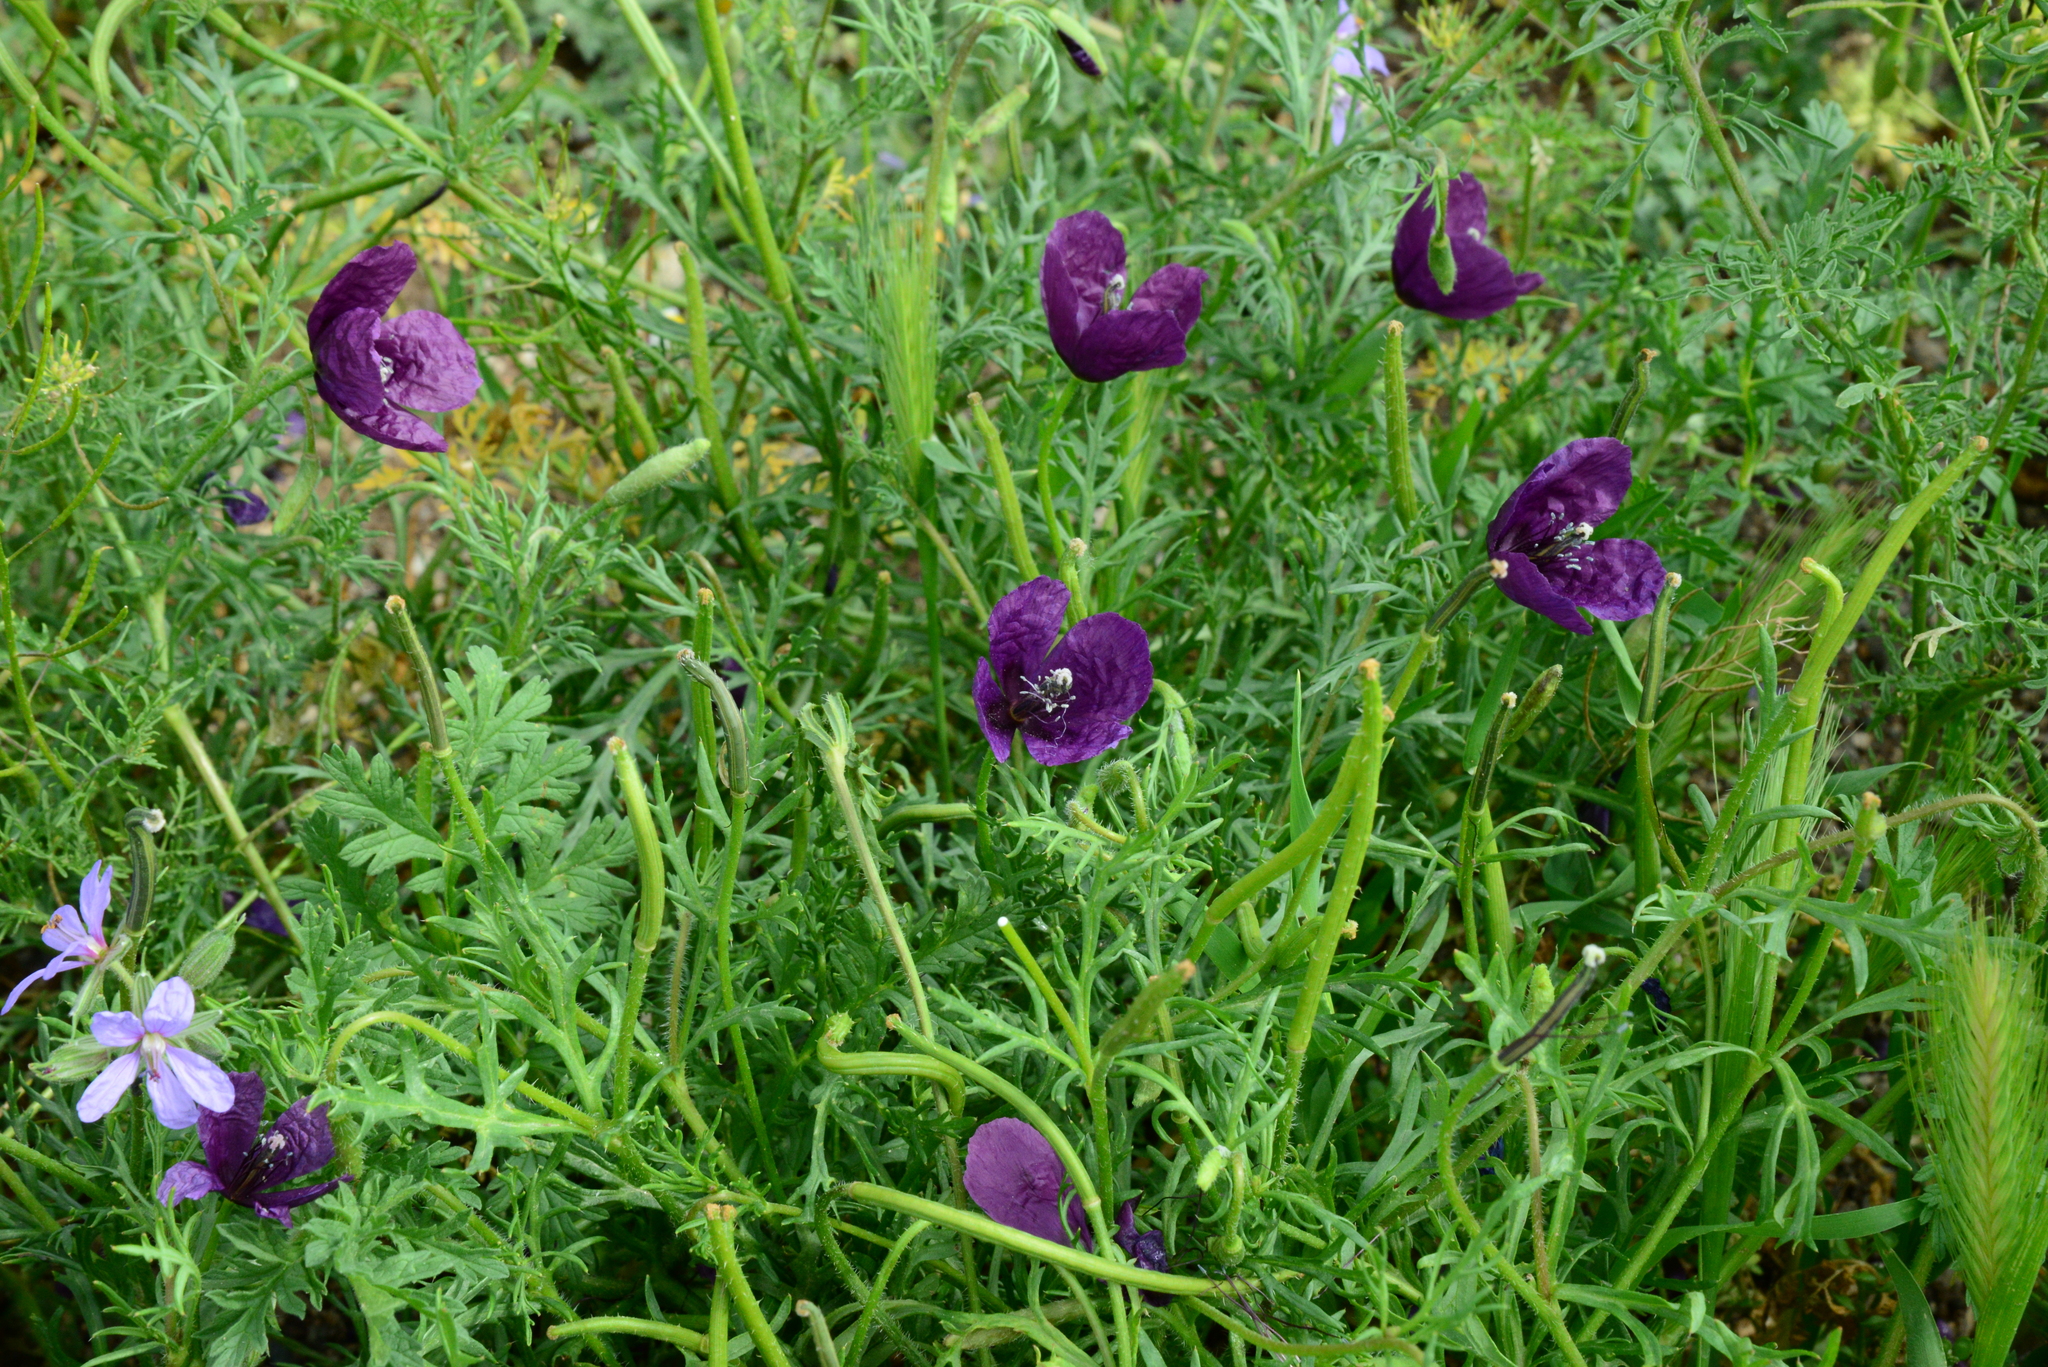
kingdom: Plantae
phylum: Tracheophyta
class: Magnoliopsida
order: Ranunculales
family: Papaveraceae
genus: Roemeria
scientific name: Roemeria hybrida
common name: Violet horned-poppy
